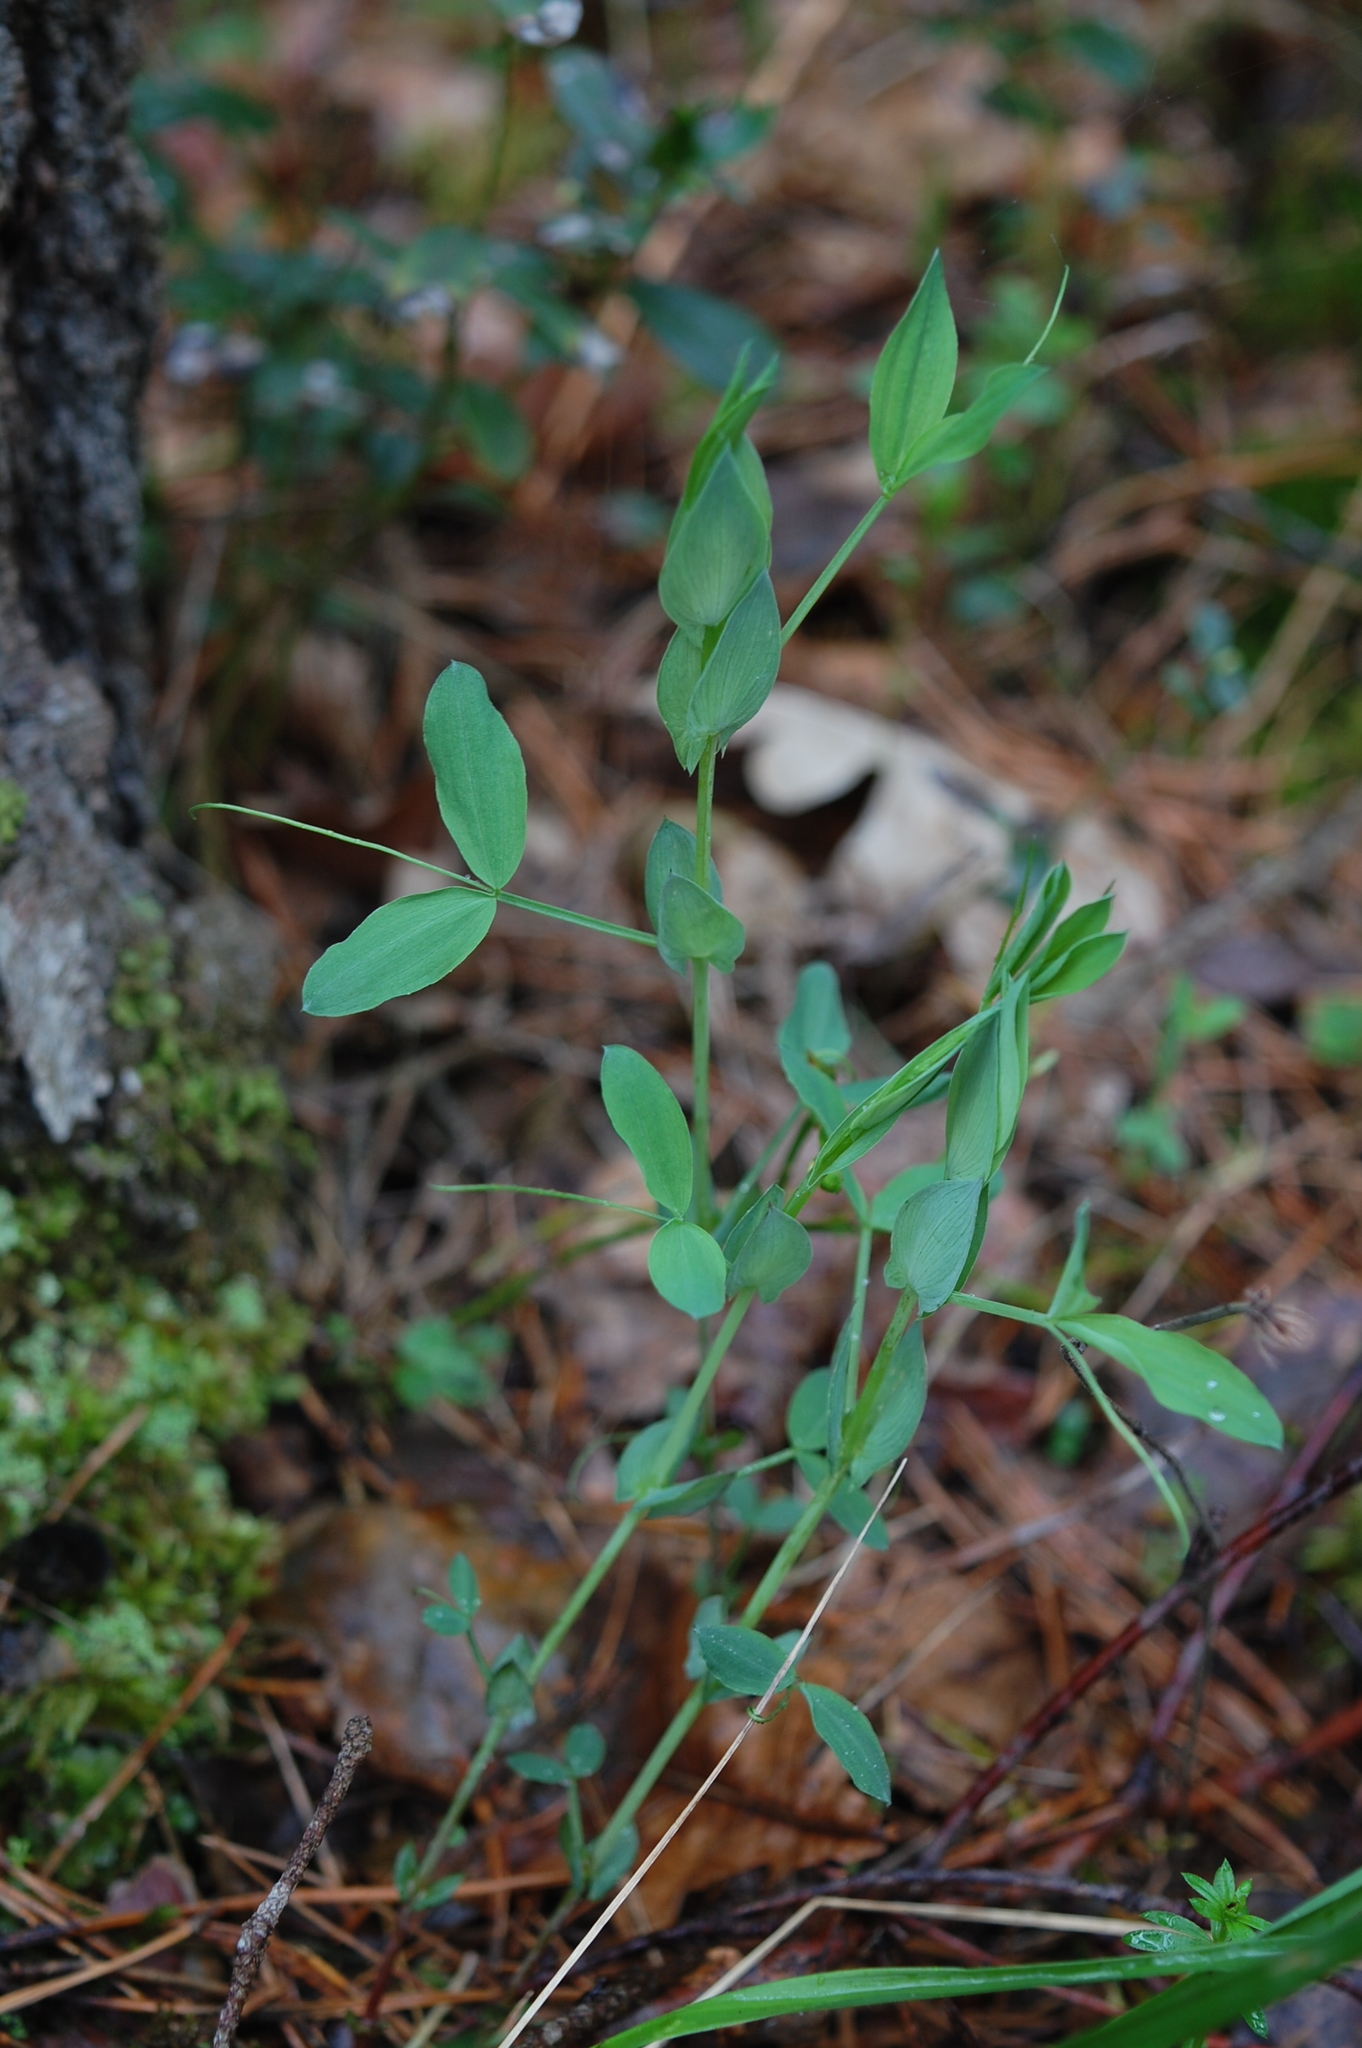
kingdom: Plantae
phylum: Tracheophyta
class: Magnoliopsida
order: Fabales
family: Fabaceae
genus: Lathyrus
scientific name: Lathyrus pratensis
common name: Meadow vetchling
